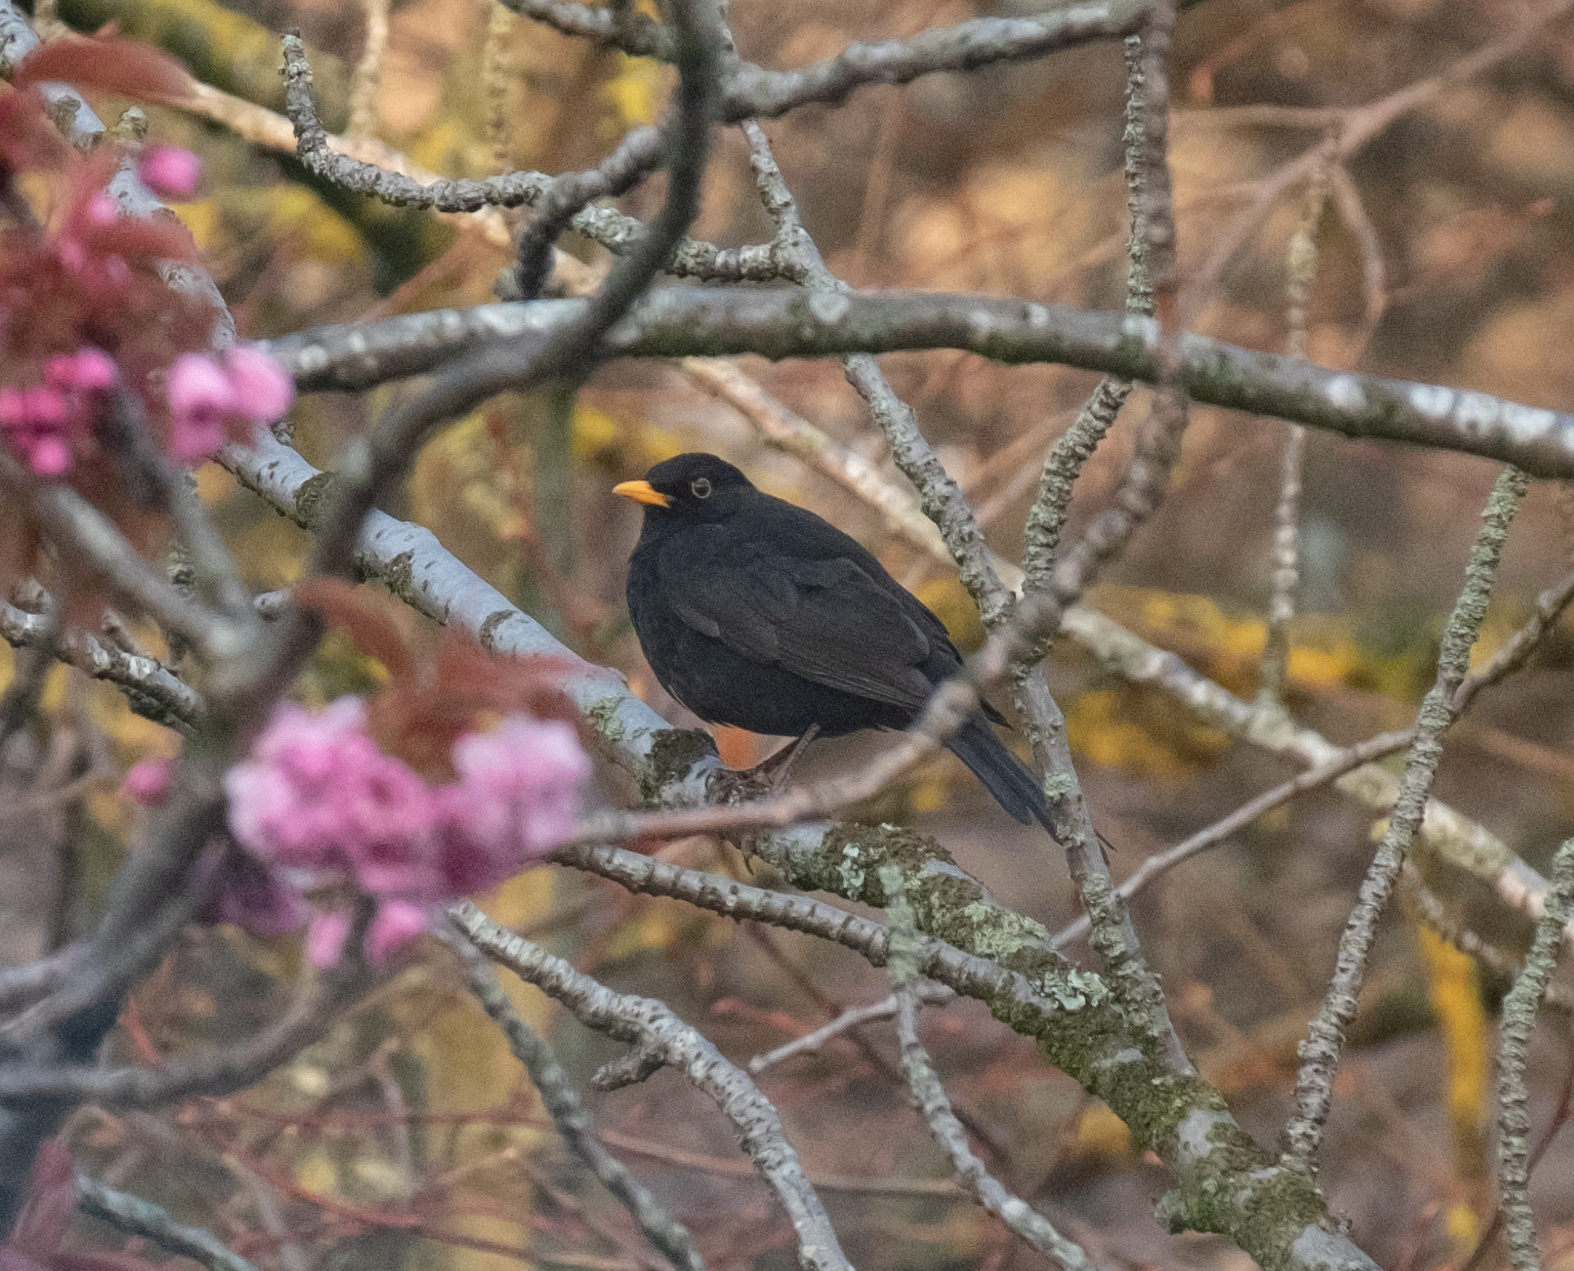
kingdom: Animalia
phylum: Chordata
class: Aves
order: Passeriformes
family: Turdidae
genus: Turdus
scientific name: Turdus merula
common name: Common blackbird
